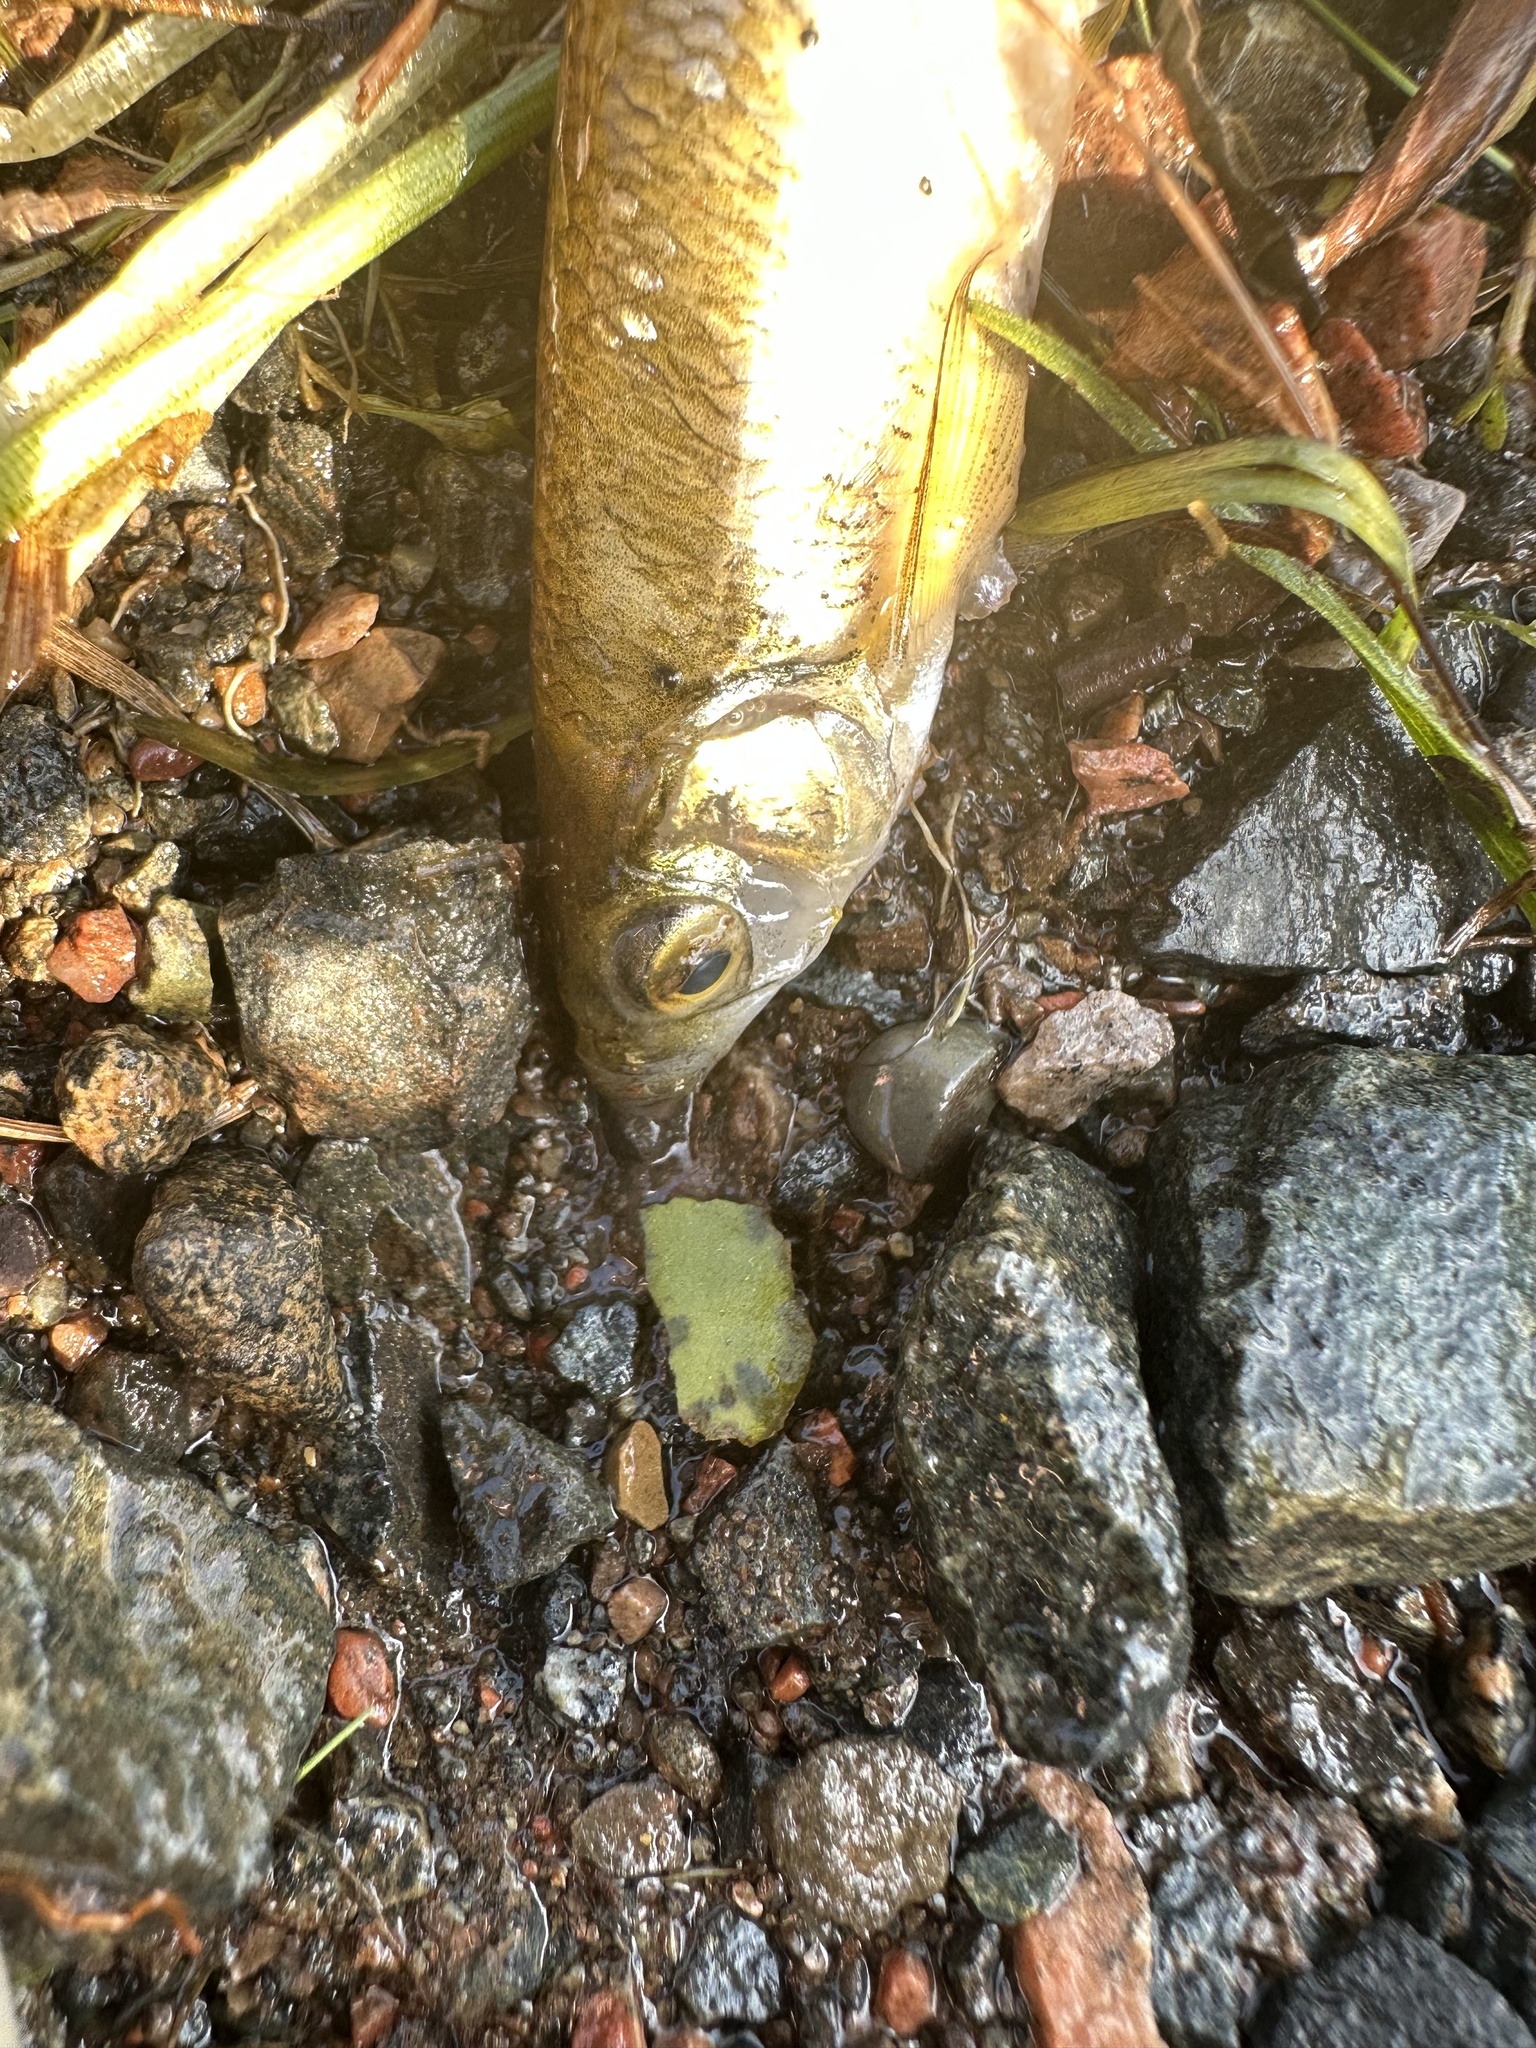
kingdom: Animalia
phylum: Chordata
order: Cypriniformes
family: Cyprinidae
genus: Notemigonus
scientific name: Notemigonus crysoleucas
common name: Golden shiner
